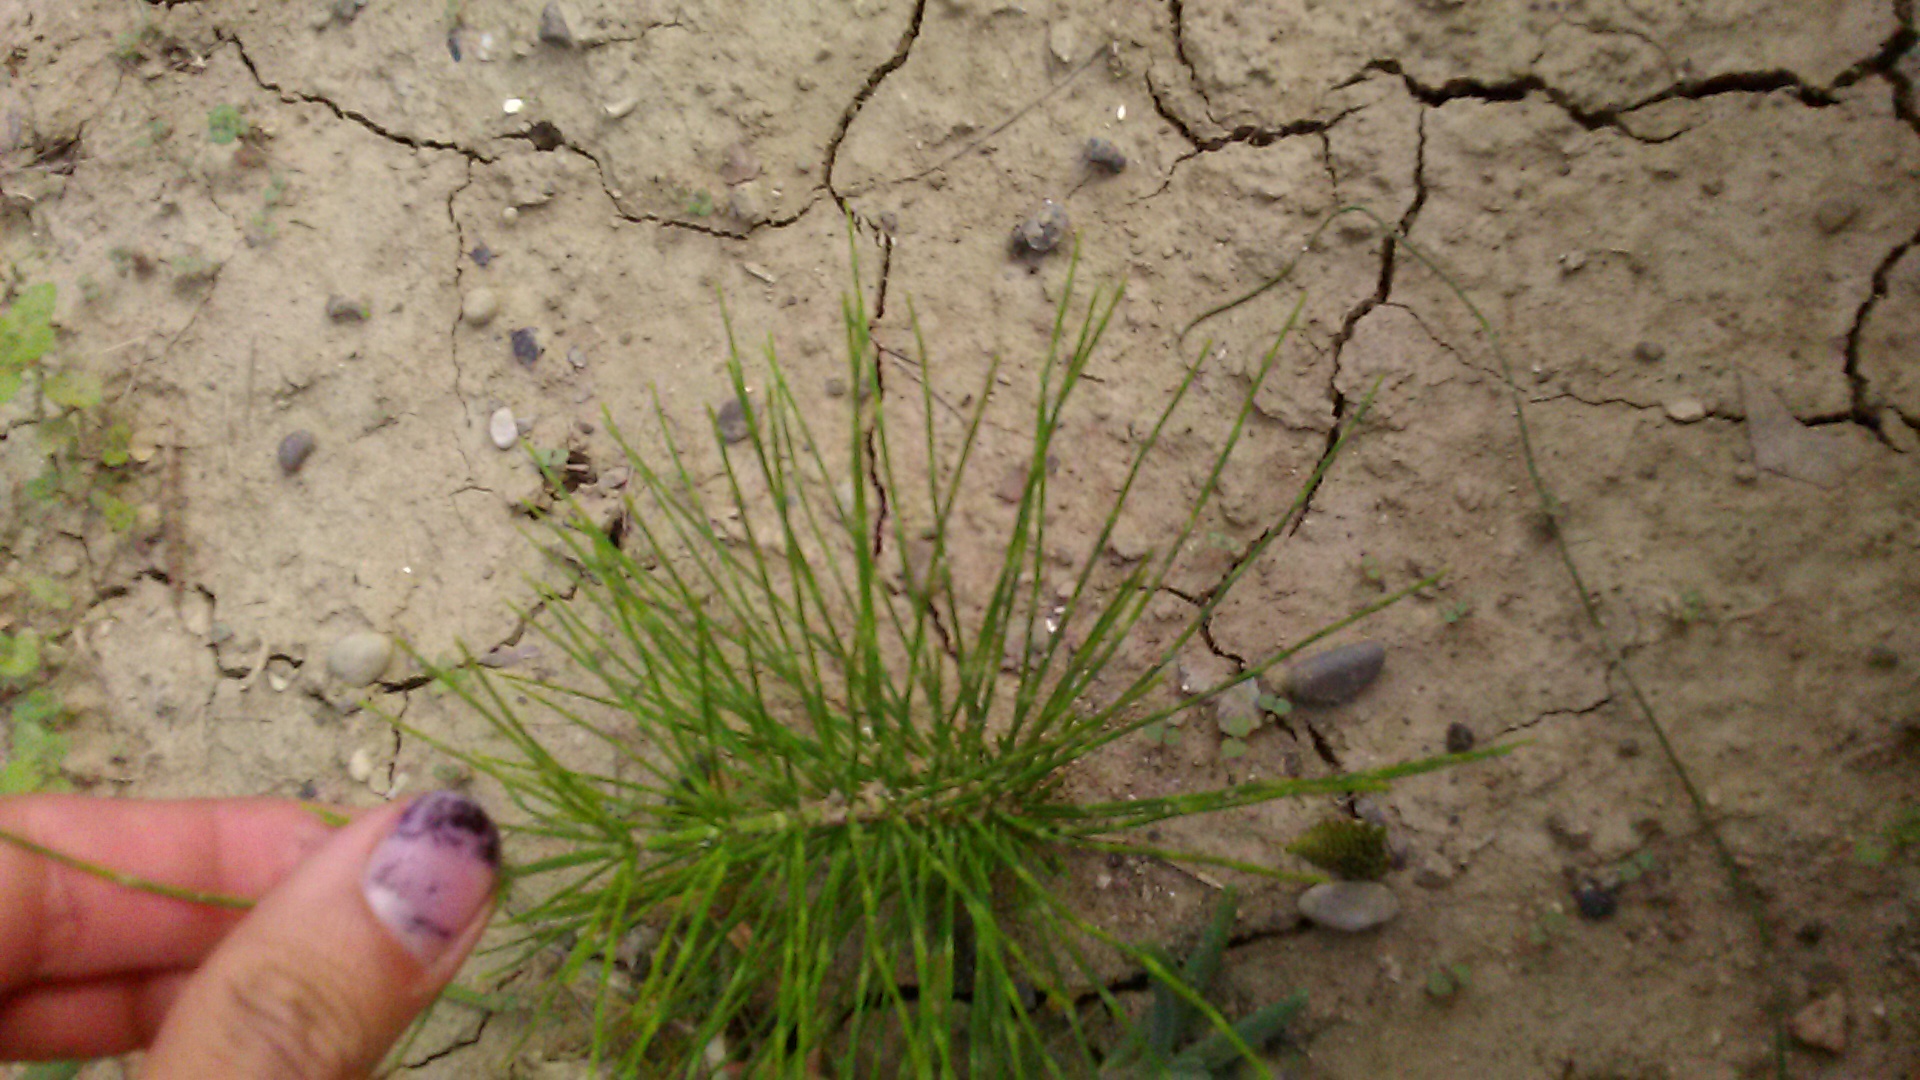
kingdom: Plantae
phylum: Tracheophyta
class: Polypodiopsida
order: Equisetales
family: Equisetaceae
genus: Equisetum
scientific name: Equisetum telmateia
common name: Great horsetail
